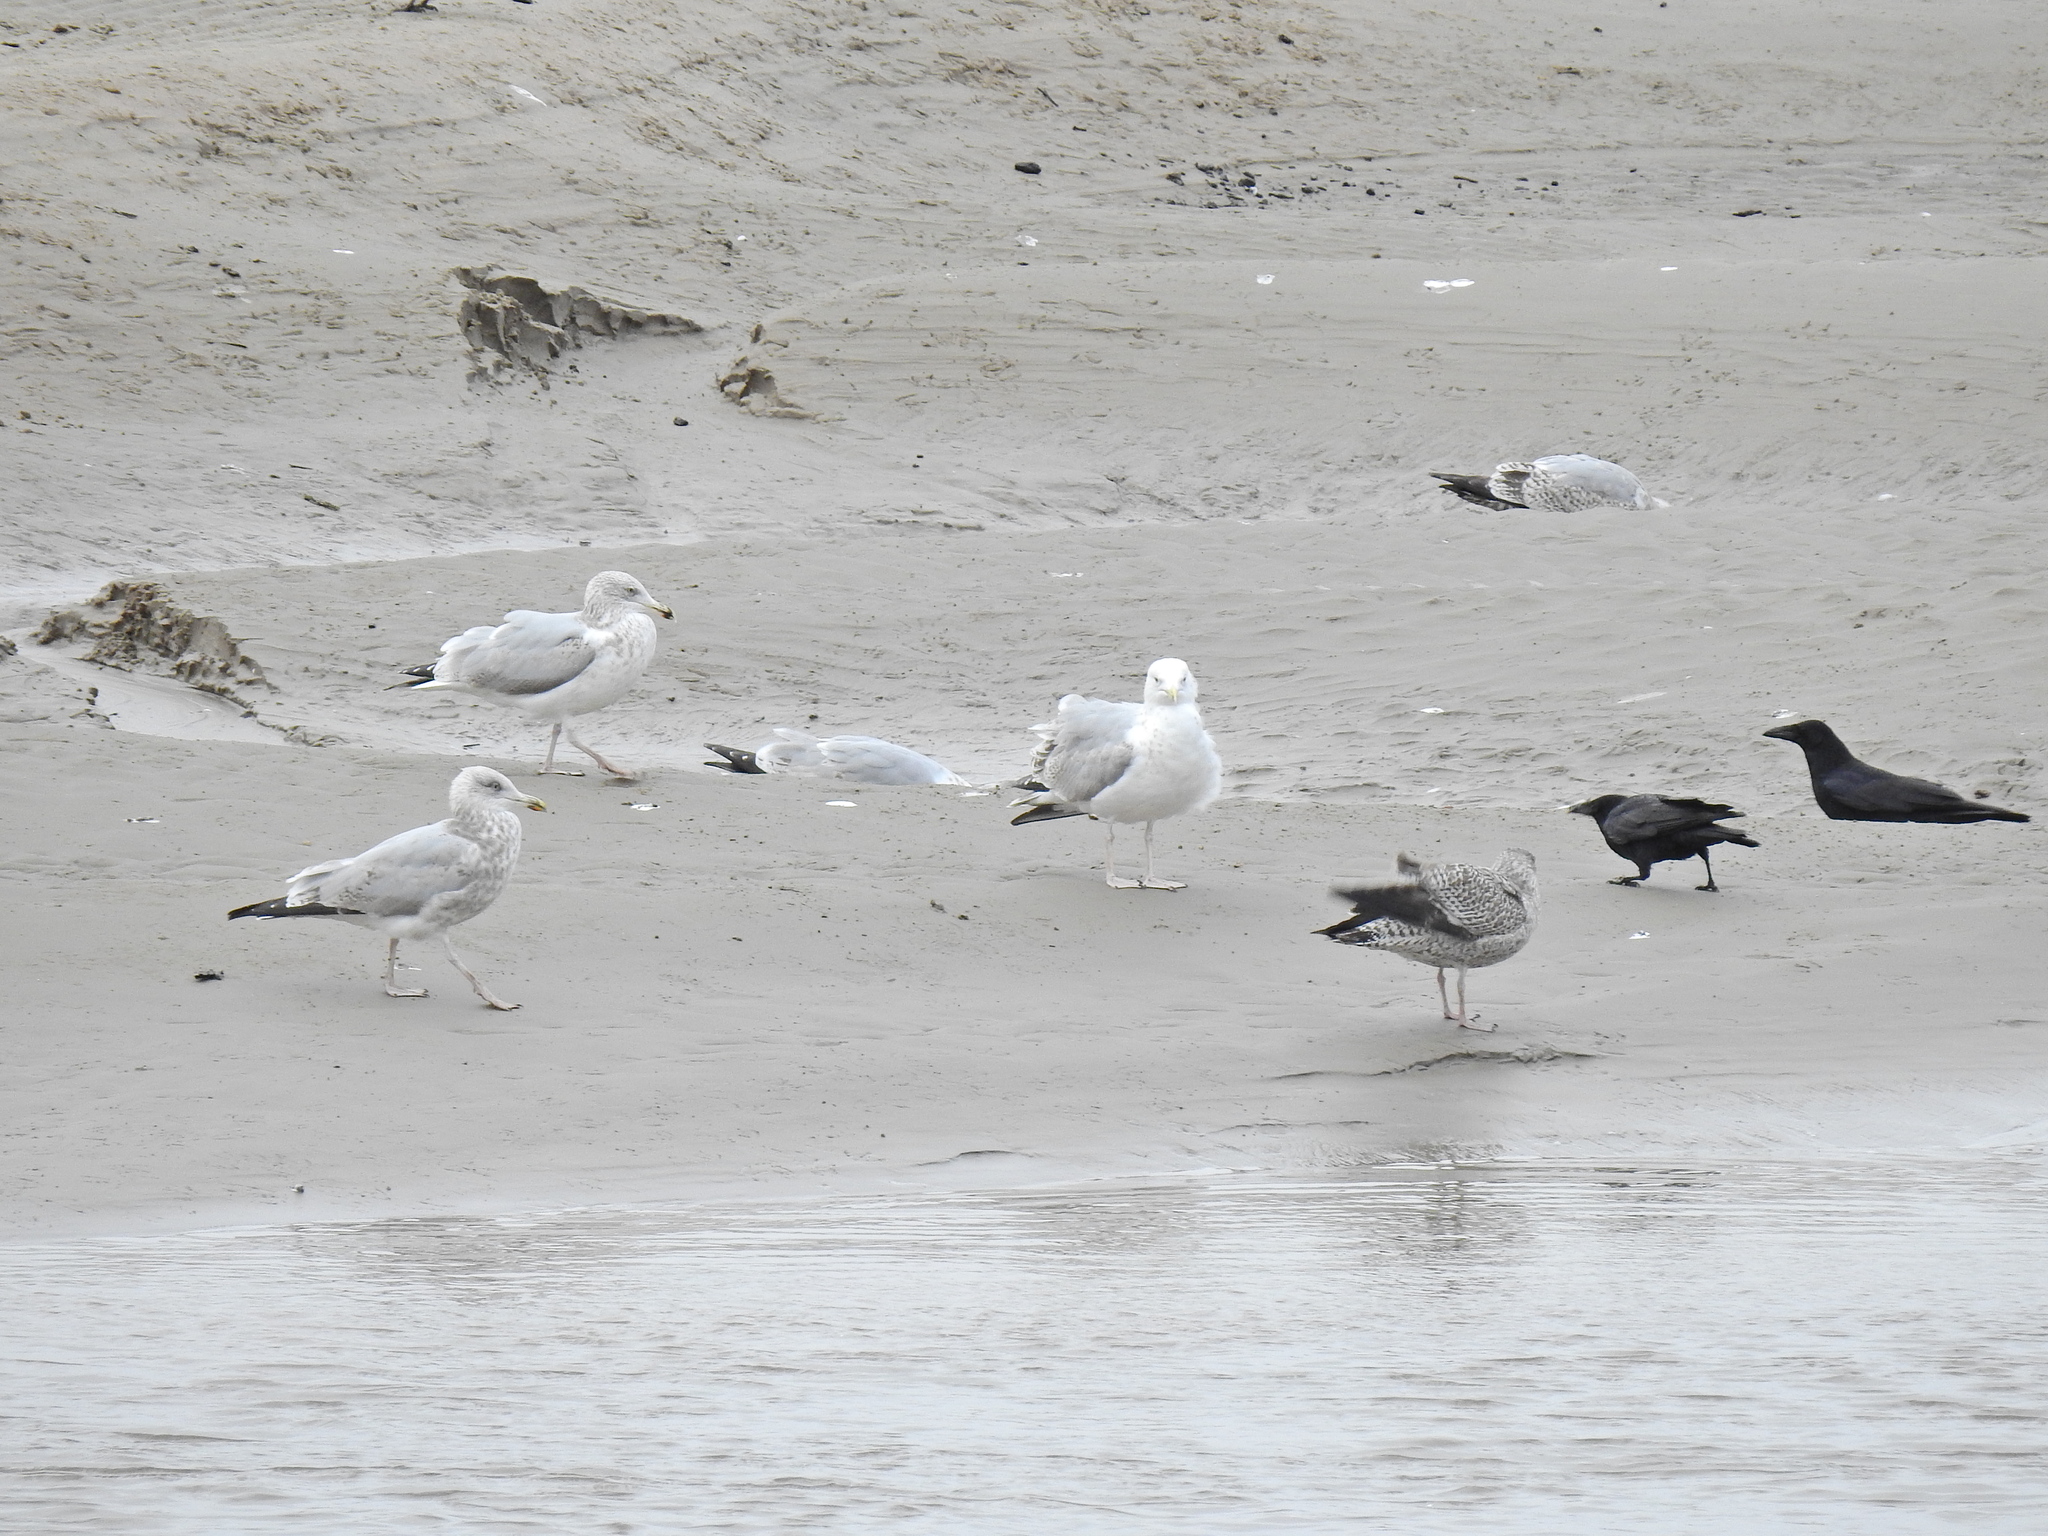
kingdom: Animalia
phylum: Chordata
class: Aves
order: Charadriiformes
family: Laridae
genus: Larus
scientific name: Larus argentatus
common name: Herring gull
